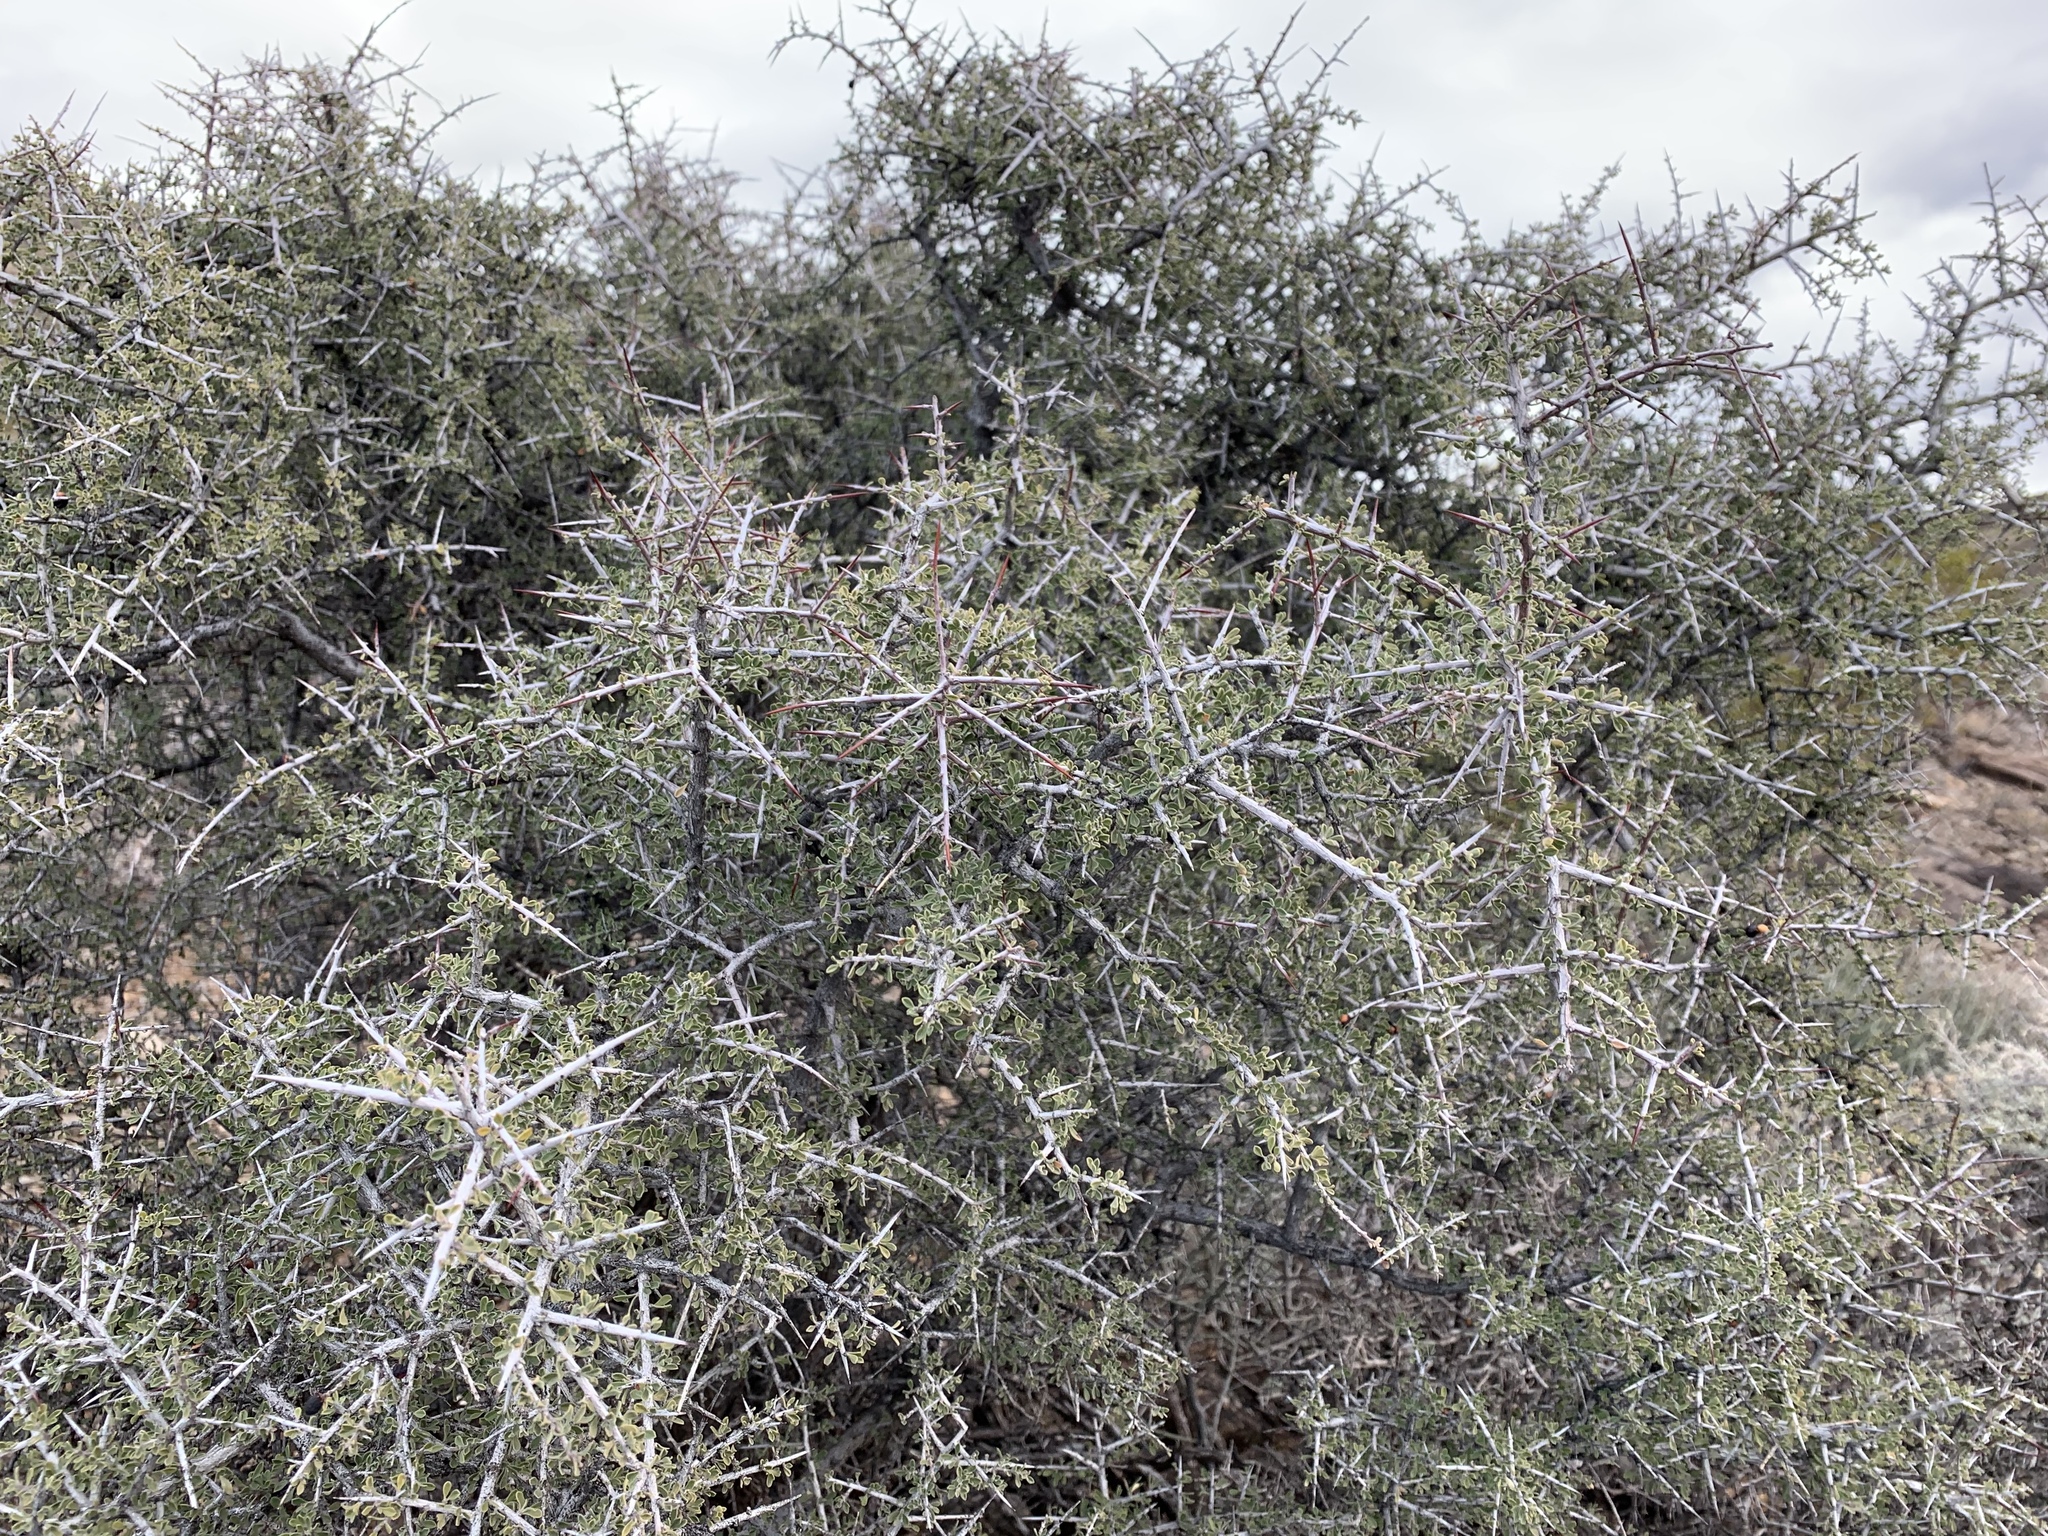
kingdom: Plantae
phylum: Tracheophyta
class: Magnoliopsida
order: Rosales
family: Rhamnaceae
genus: Condalia
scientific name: Condalia warnockii
